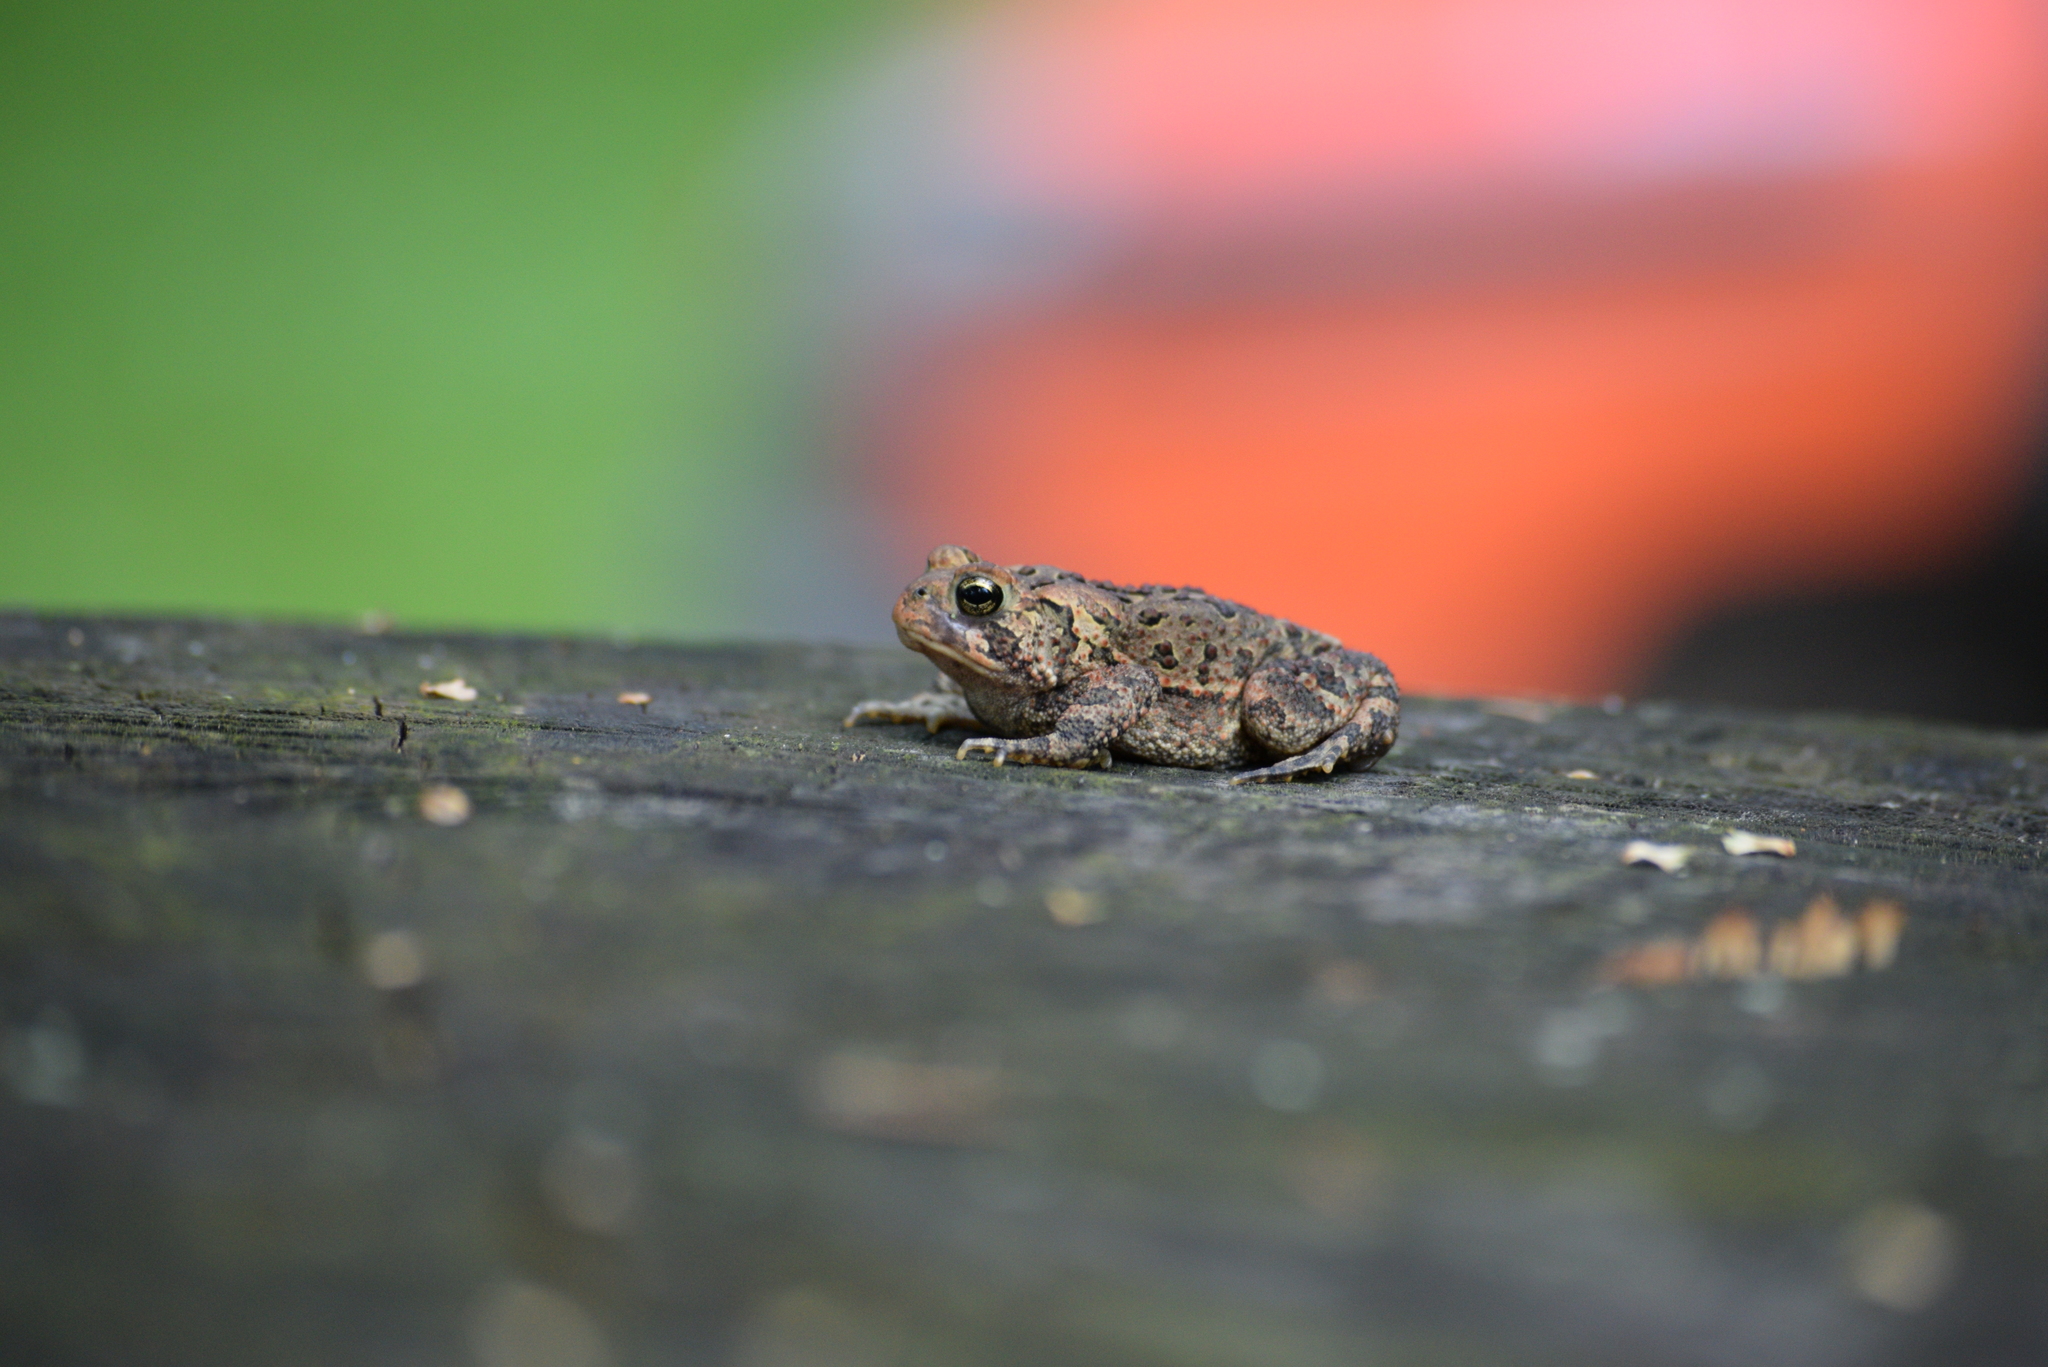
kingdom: Animalia
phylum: Chordata
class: Amphibia
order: Anura
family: Bufonidae
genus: Anaxyrus
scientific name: Anaxyrus americanus
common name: American toad
